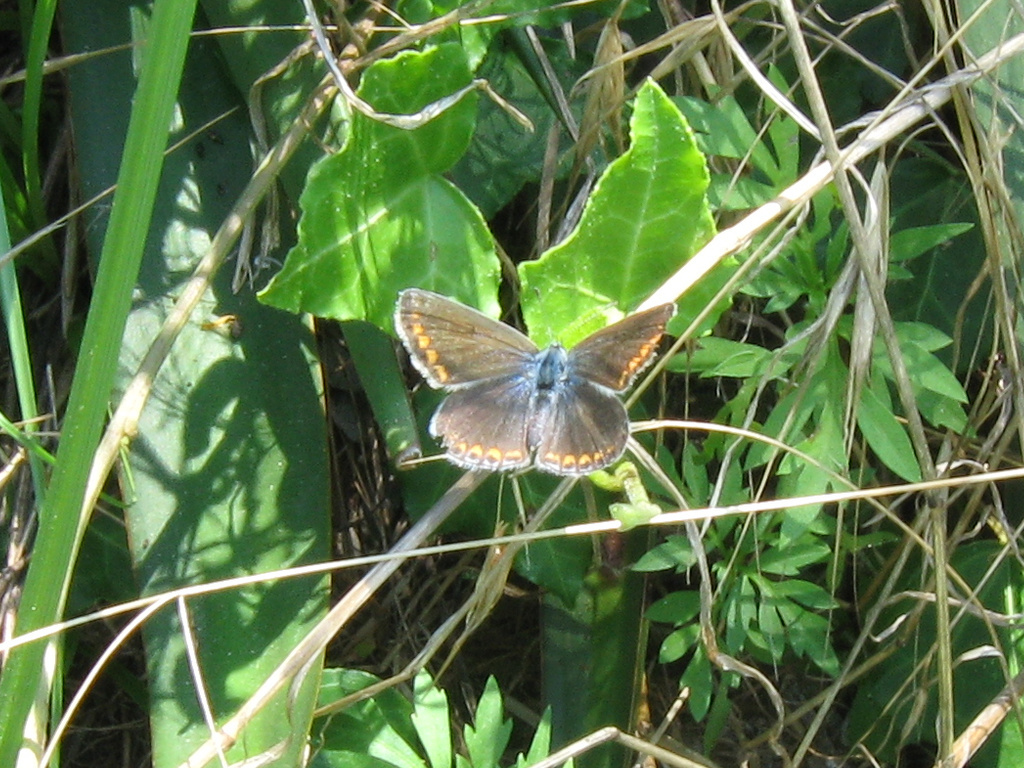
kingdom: Animalia
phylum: Arthropoda
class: Insecta
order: Lepidoptera
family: Lycaenidae
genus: Polyommatus
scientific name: Polyommatus icarus
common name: Common blue
